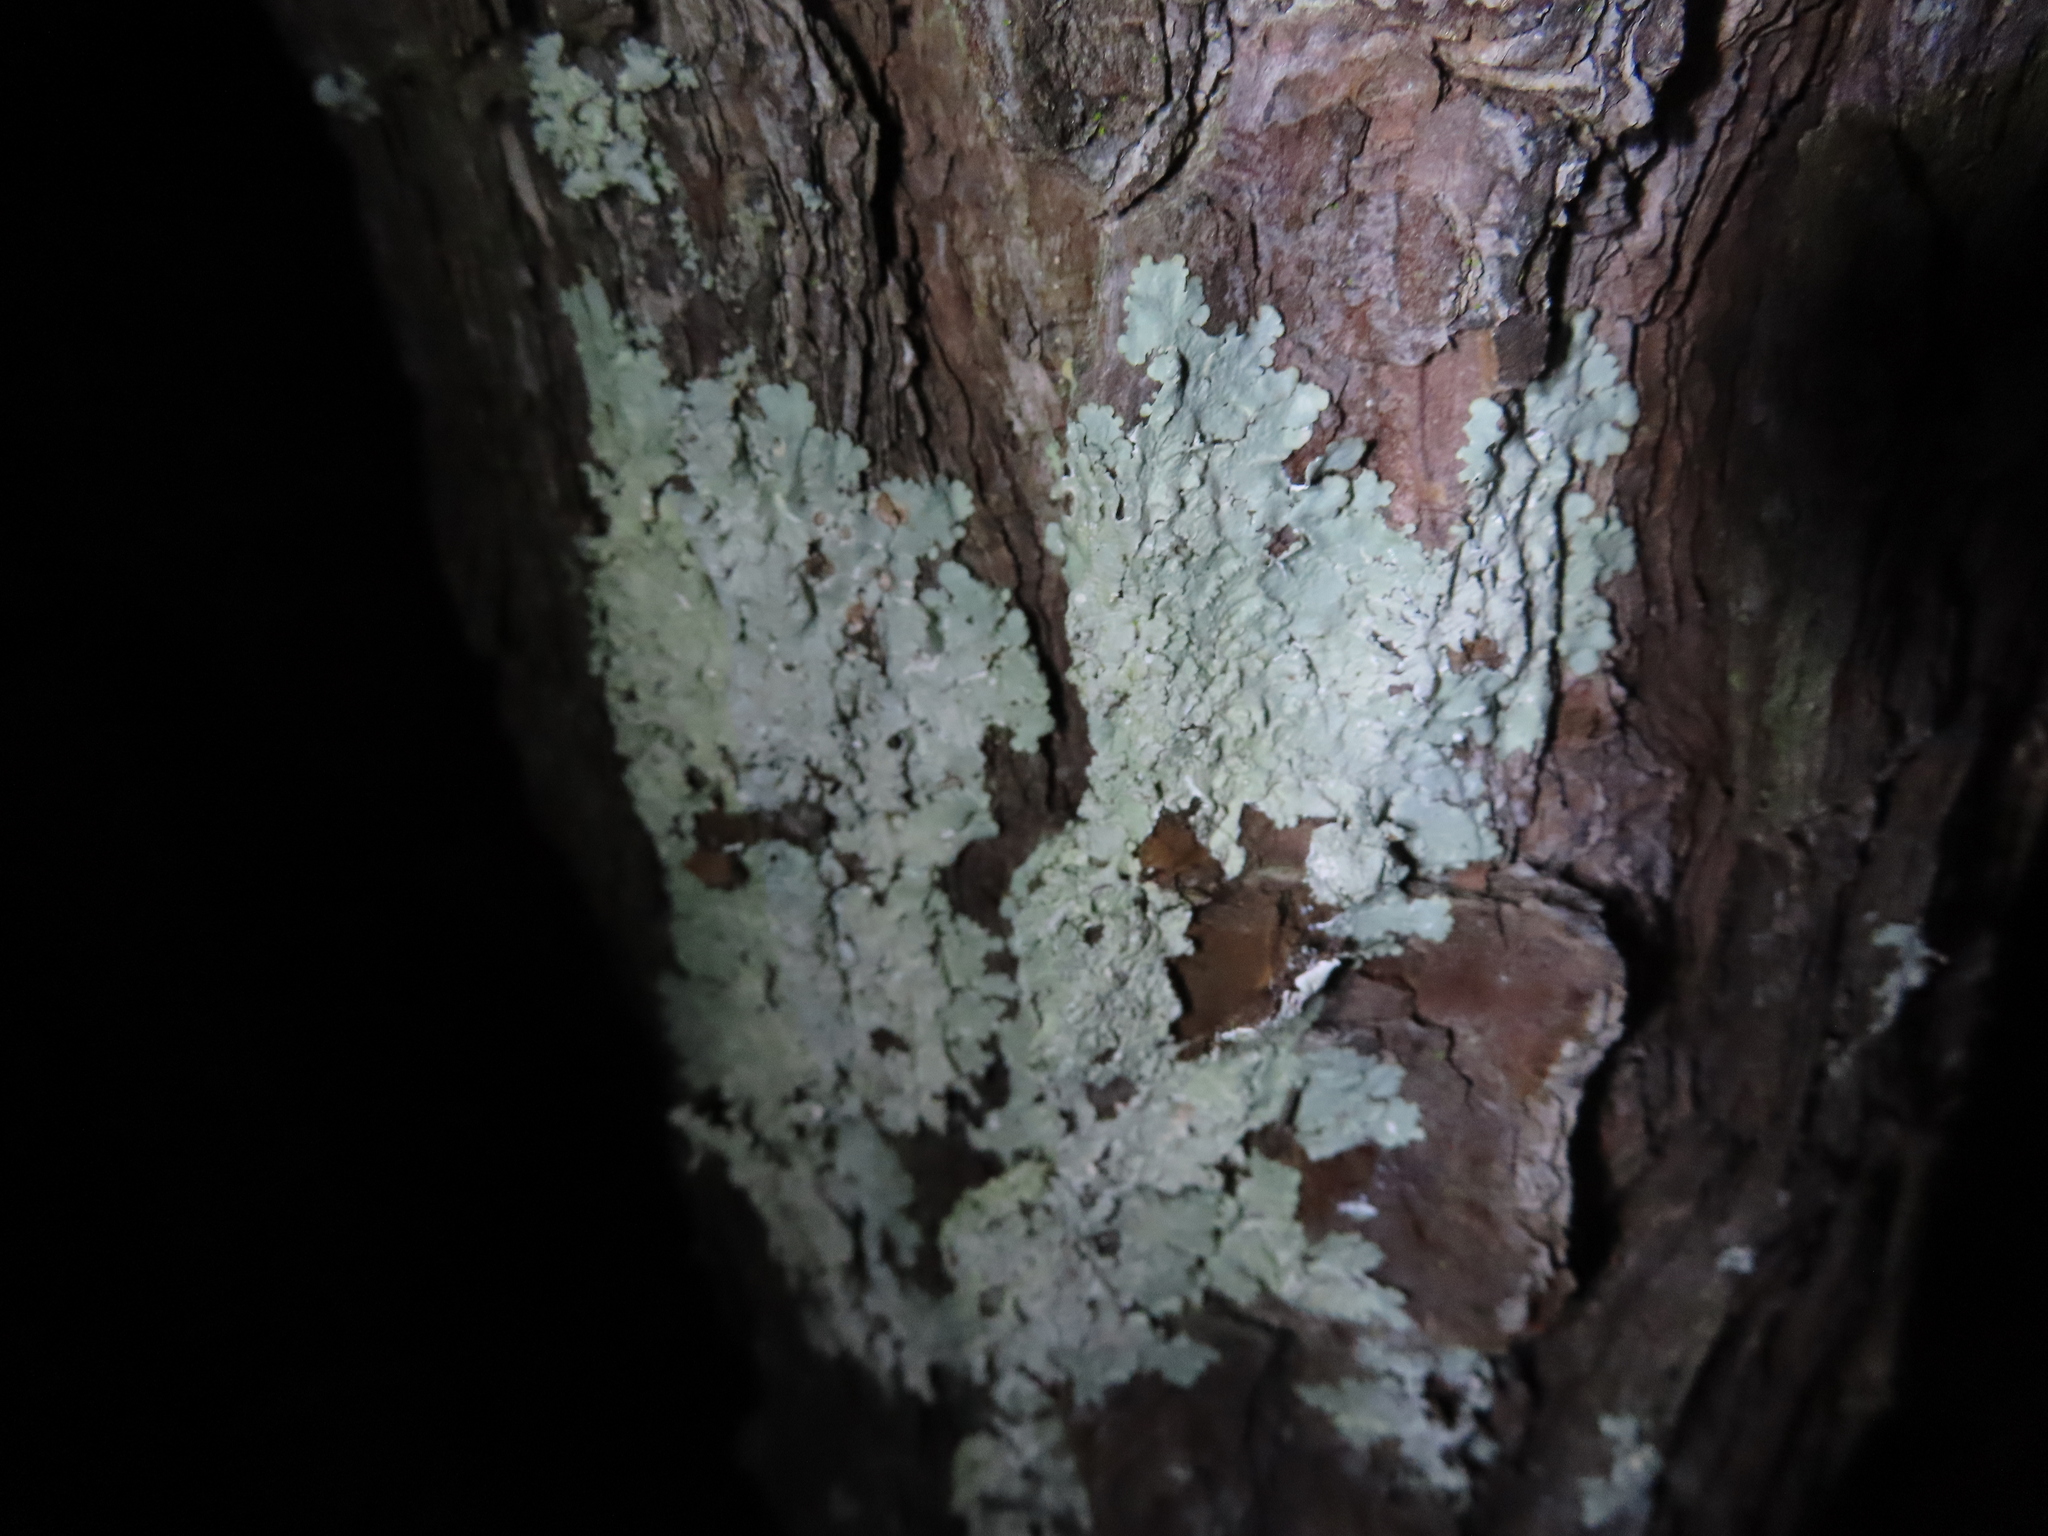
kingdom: Fungi
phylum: Ascomycota
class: Lecanoromycetes
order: Lecanorales
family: Parmeliaceae
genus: Canoparmelia
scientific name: Canoparmelia texana
